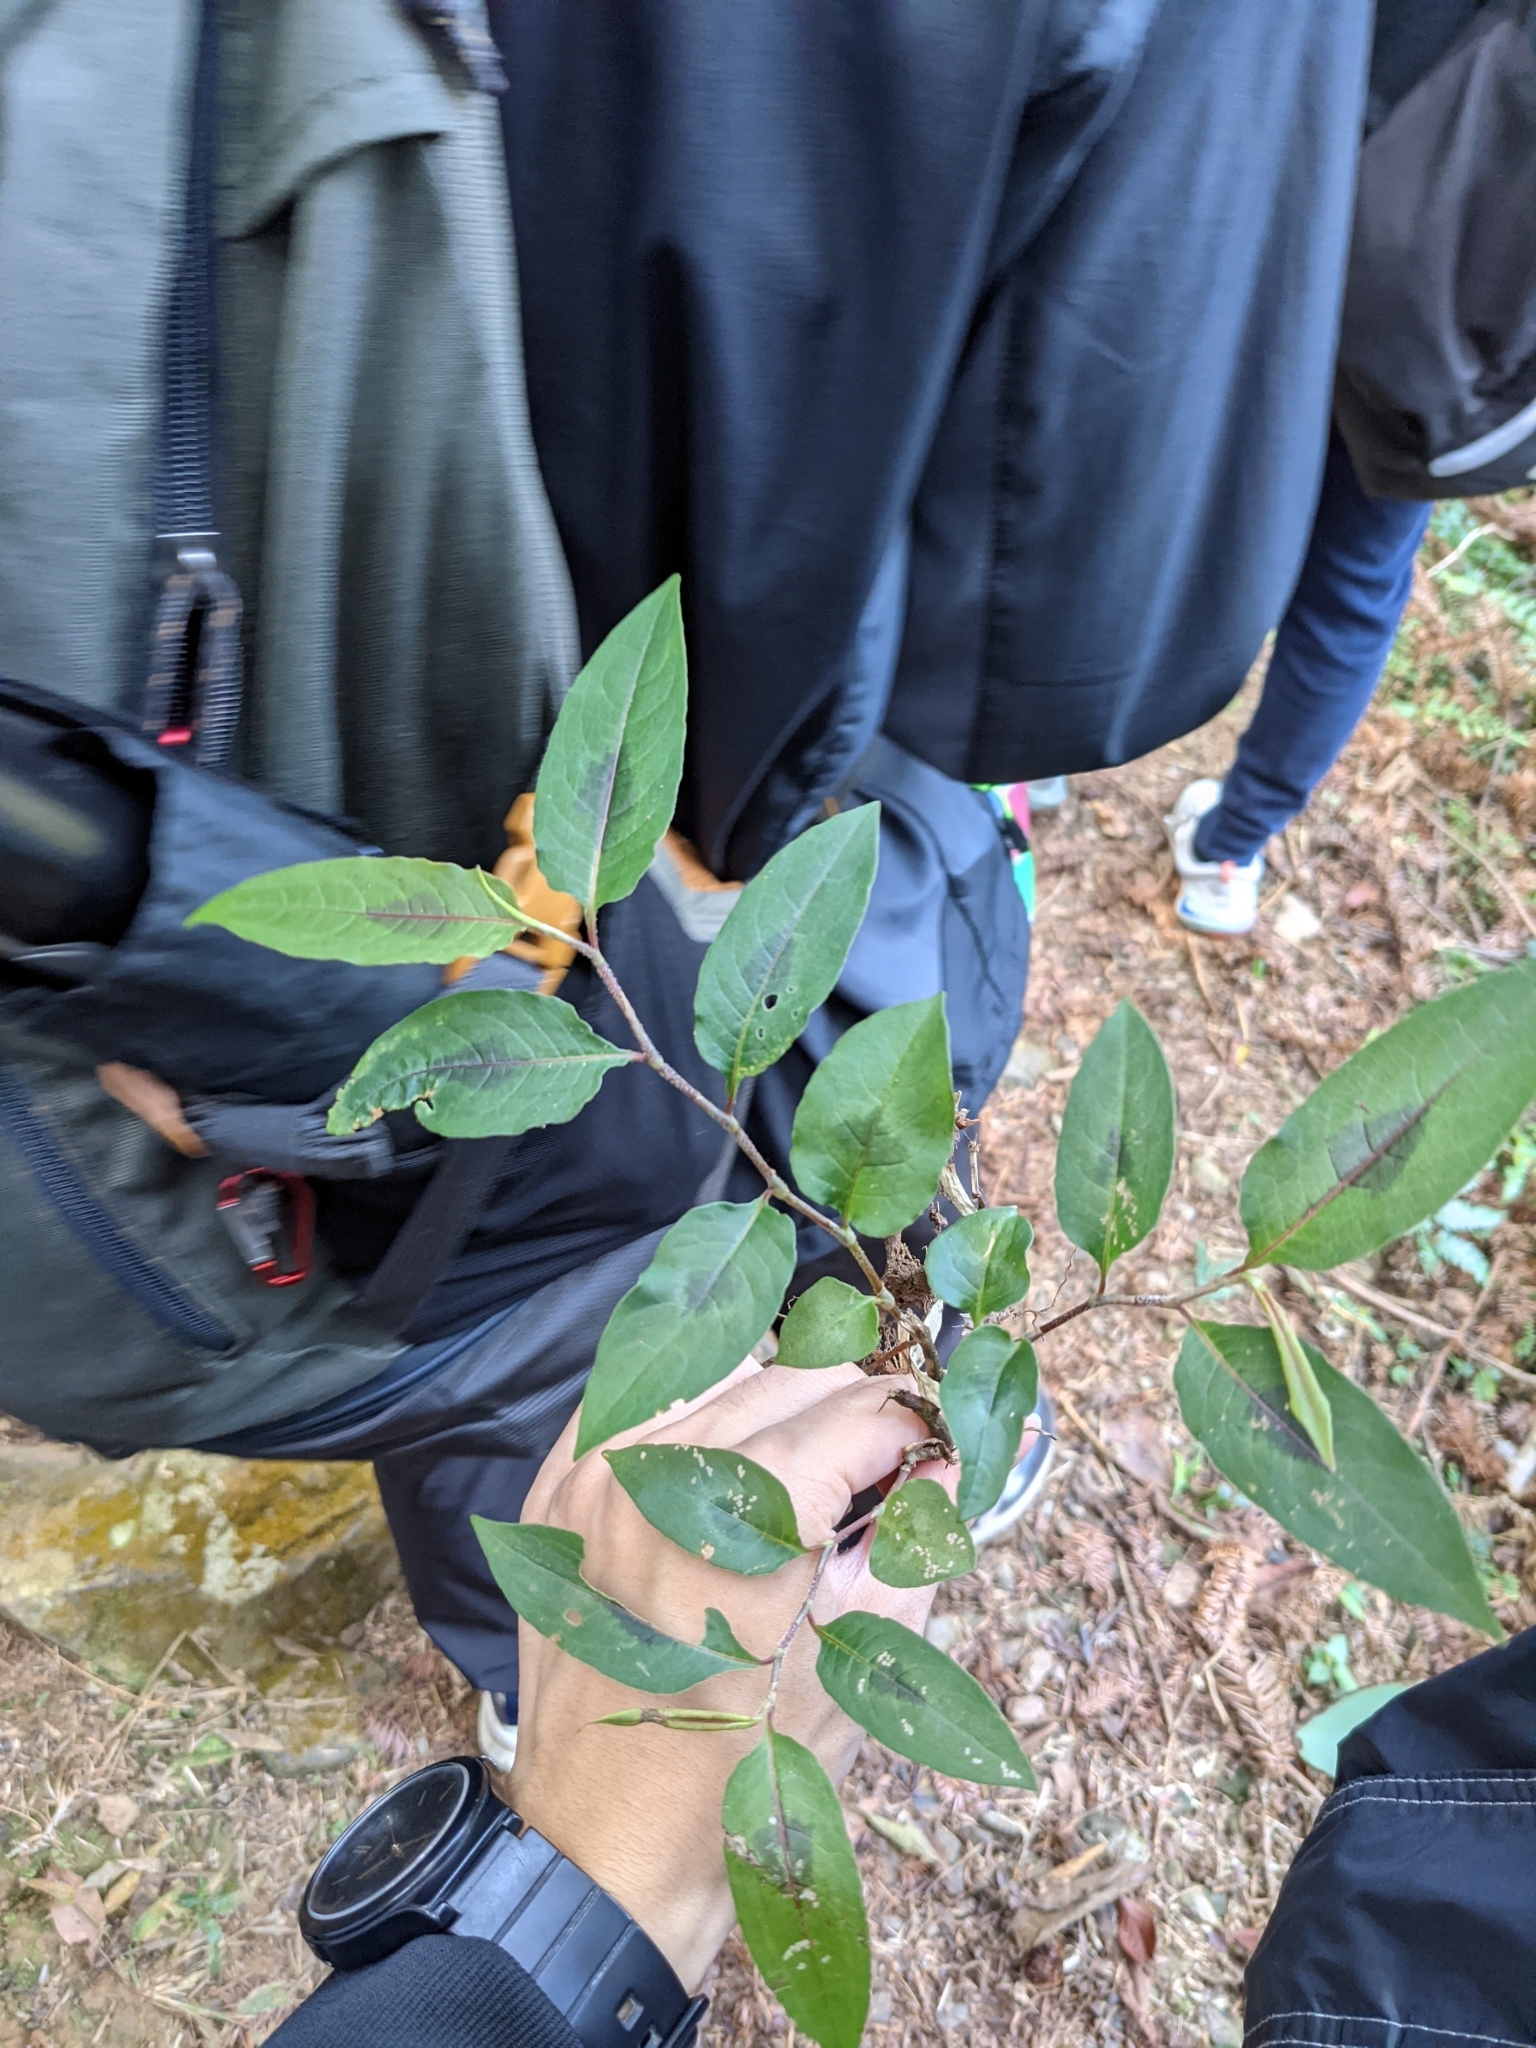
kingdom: Plantae
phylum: Tracheophyta
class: Magnoliopsida
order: Caryophyllales
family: Polygonaceae
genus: Persicaria
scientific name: Persicaria chinensis
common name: Chinese knotweed
